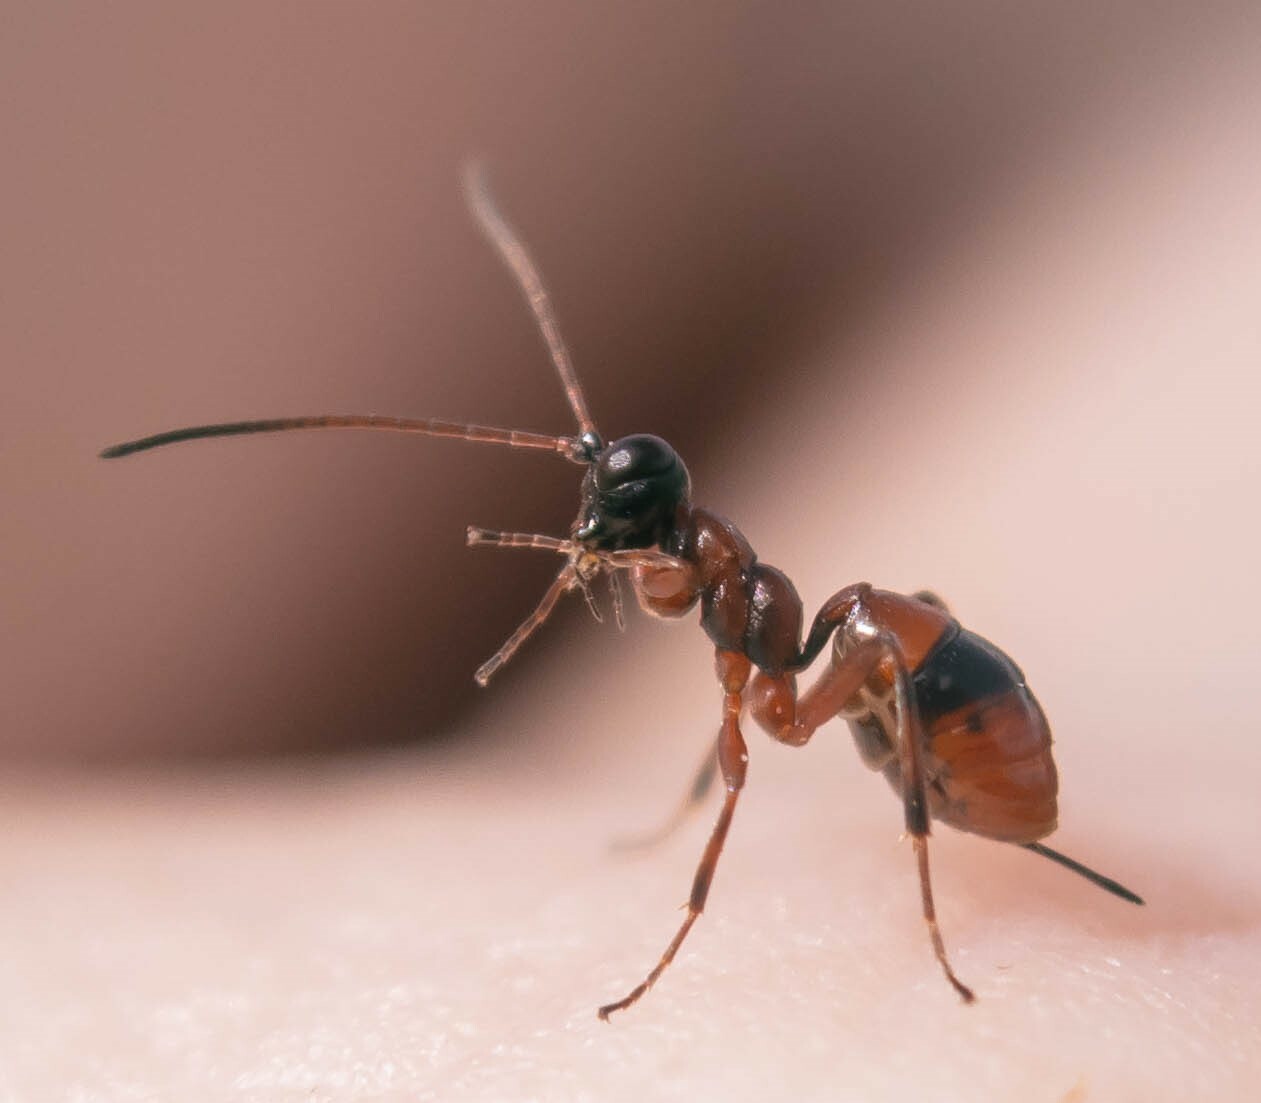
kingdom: Animalia
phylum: Arthropoda
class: Insecta
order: Hymenoptera
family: Ichneumonidae
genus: Gelis
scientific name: Gelis melanocephalus
